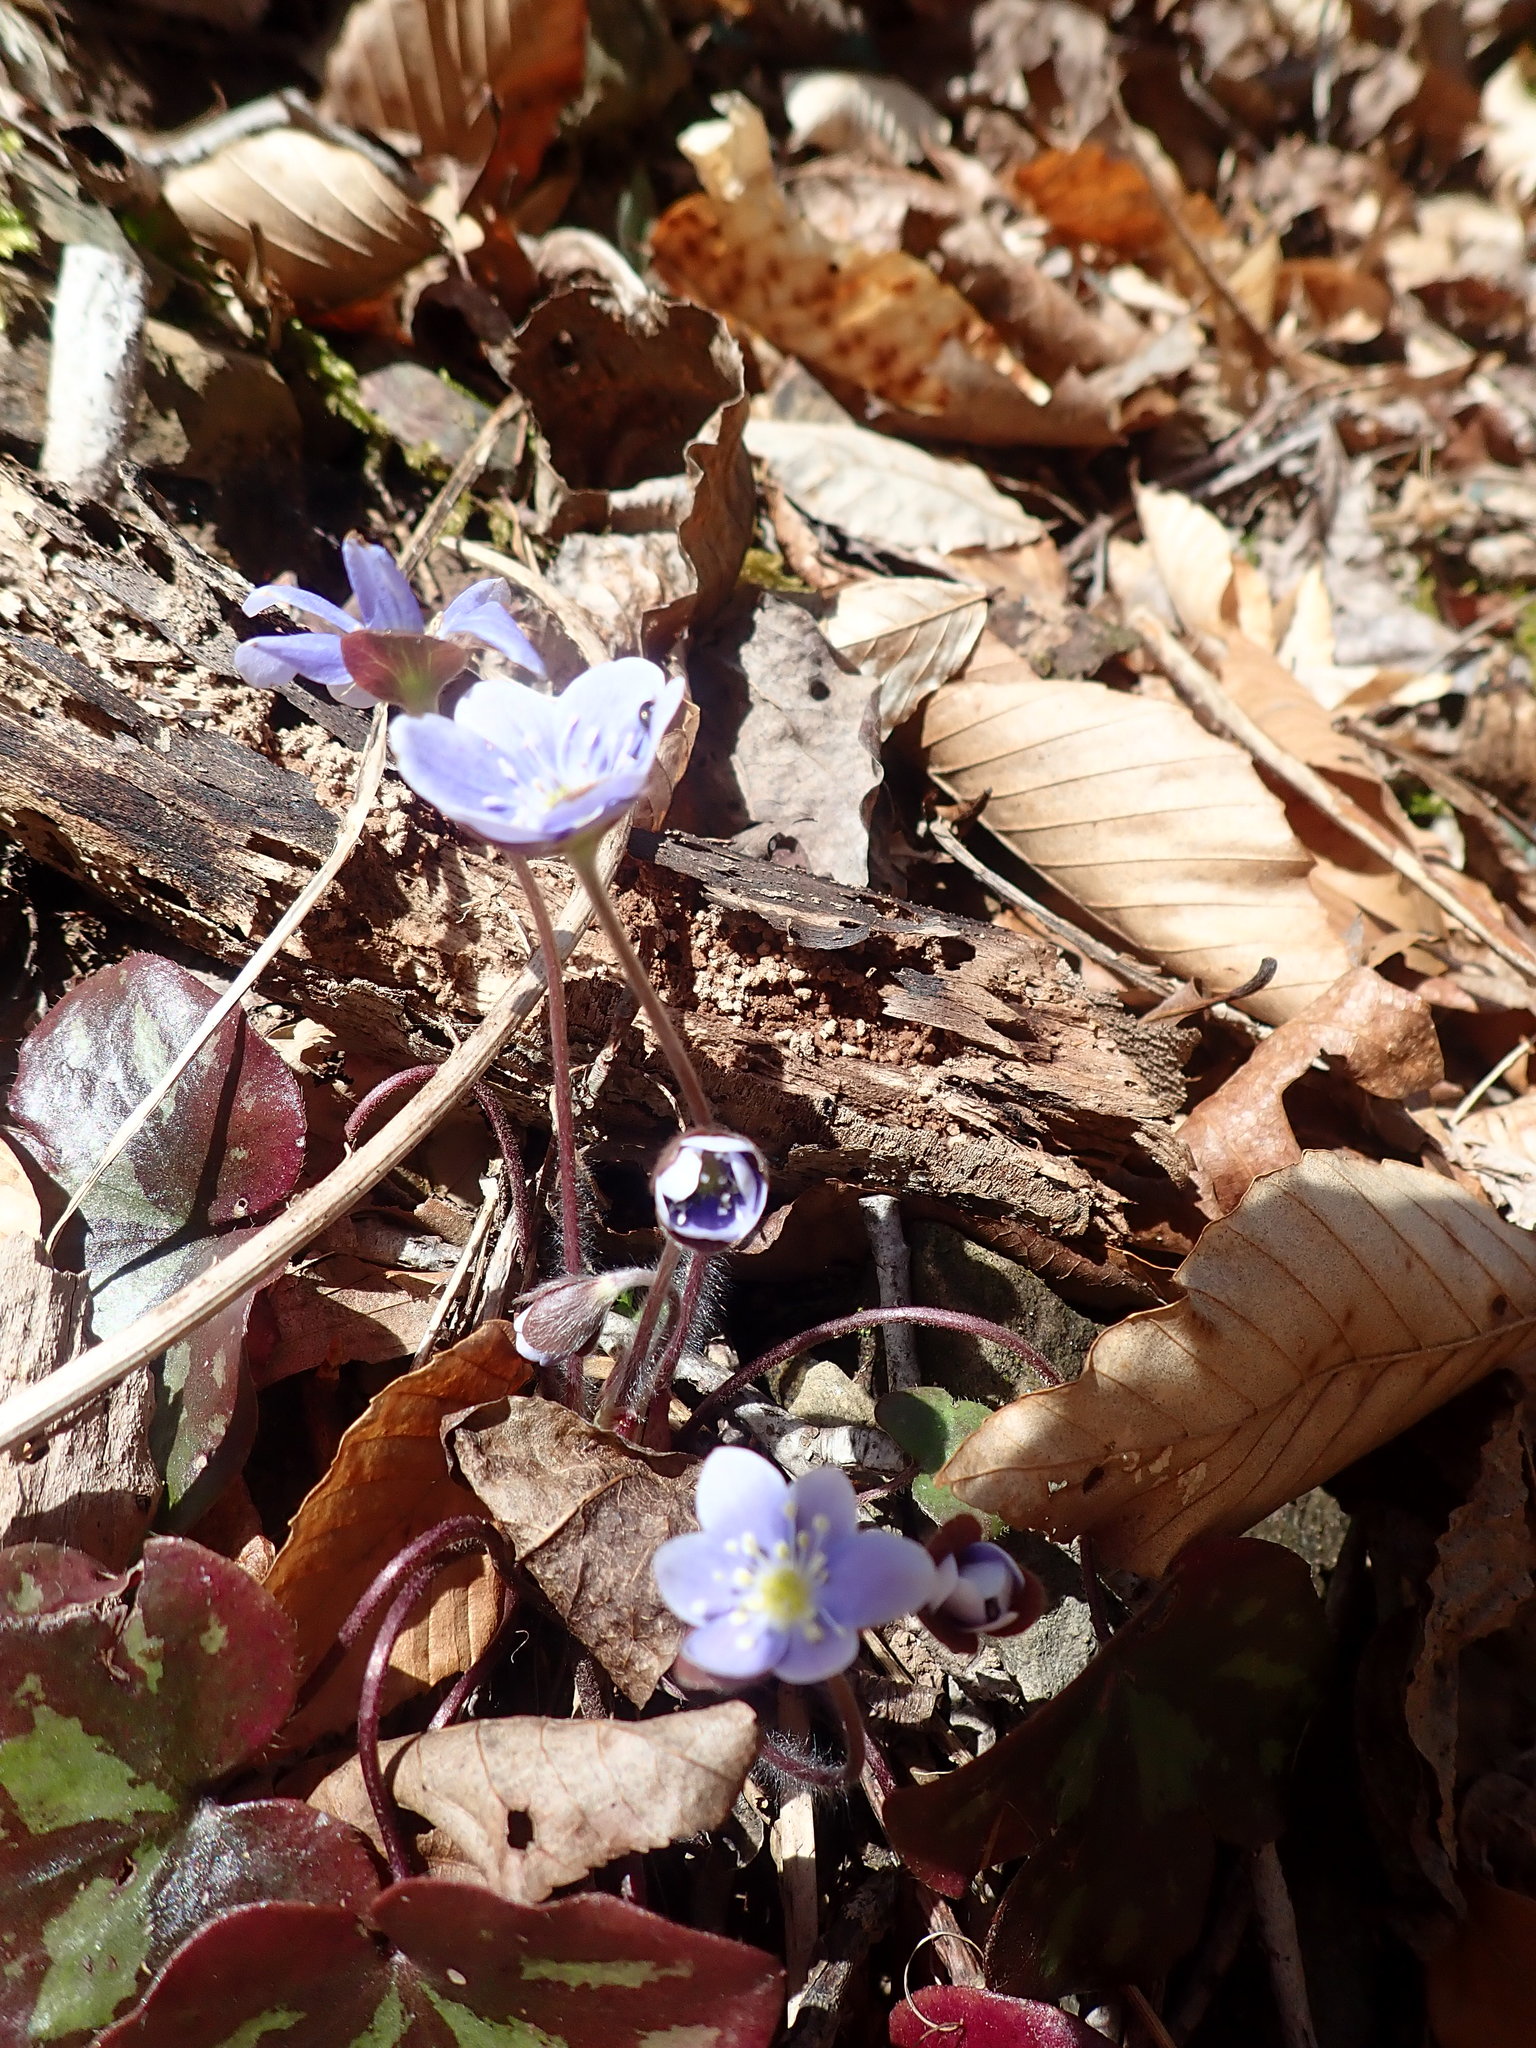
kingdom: Plantae
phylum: Tracheophyta
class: Magnoliopsida
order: Ranunculales
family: Ranunculaceae
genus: Hepatica
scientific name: Hepatica americana
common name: American hepatica
